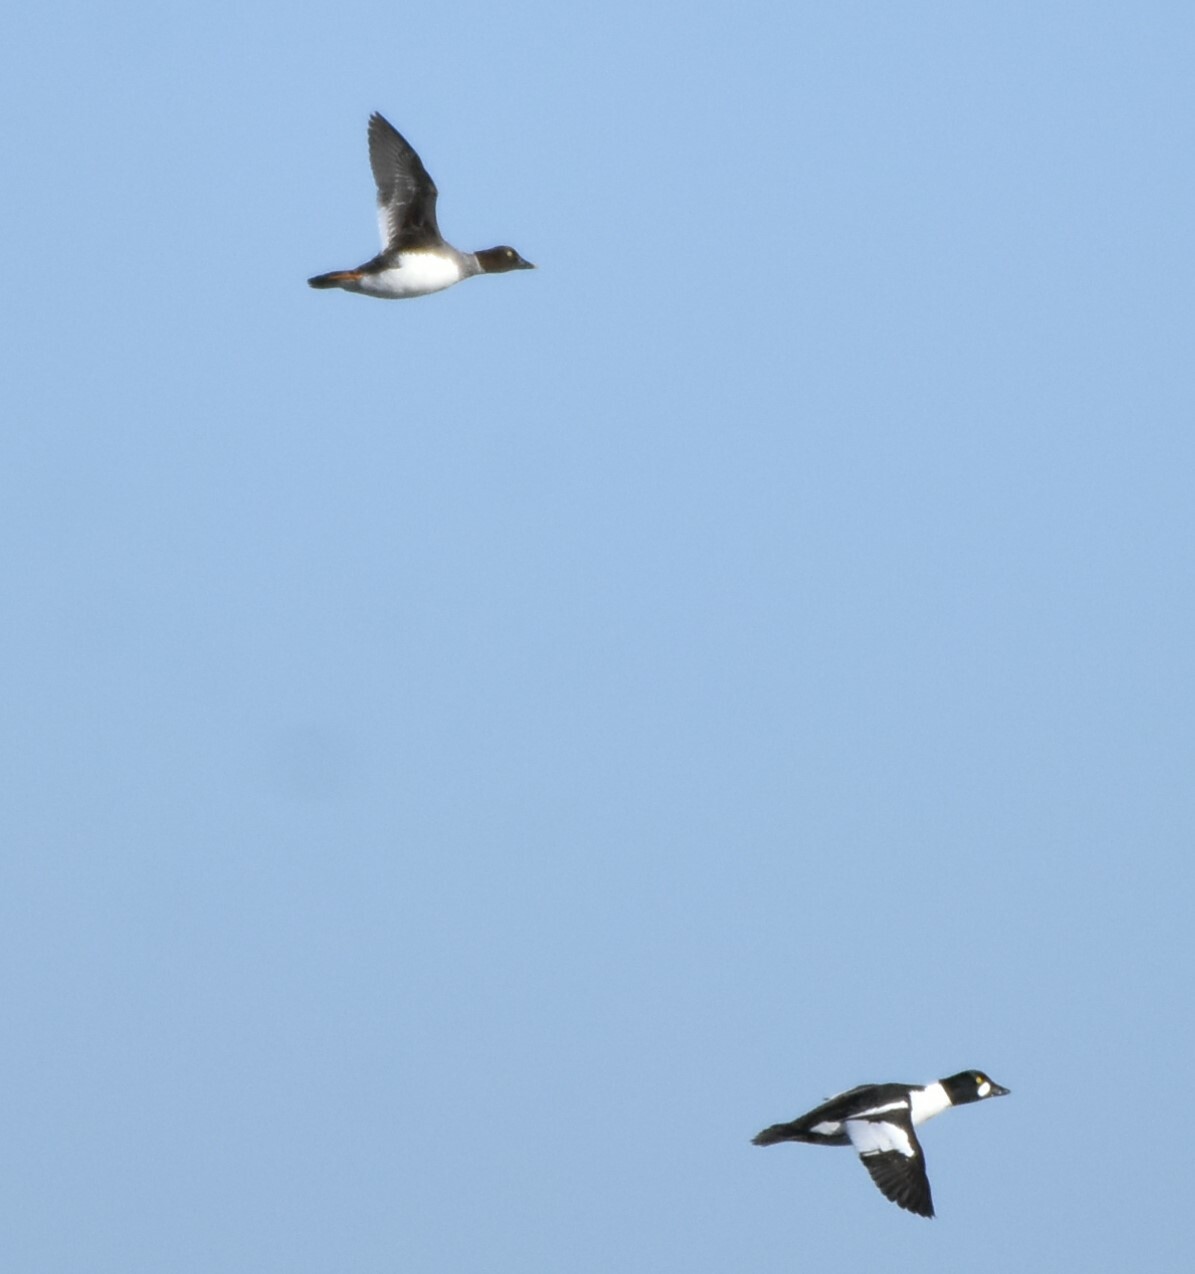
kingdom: Animalia
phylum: Chordata
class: Aves
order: Anseriformes
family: Anatidae
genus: Bucephala
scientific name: Bucephala clangula
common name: Common goldeneye
